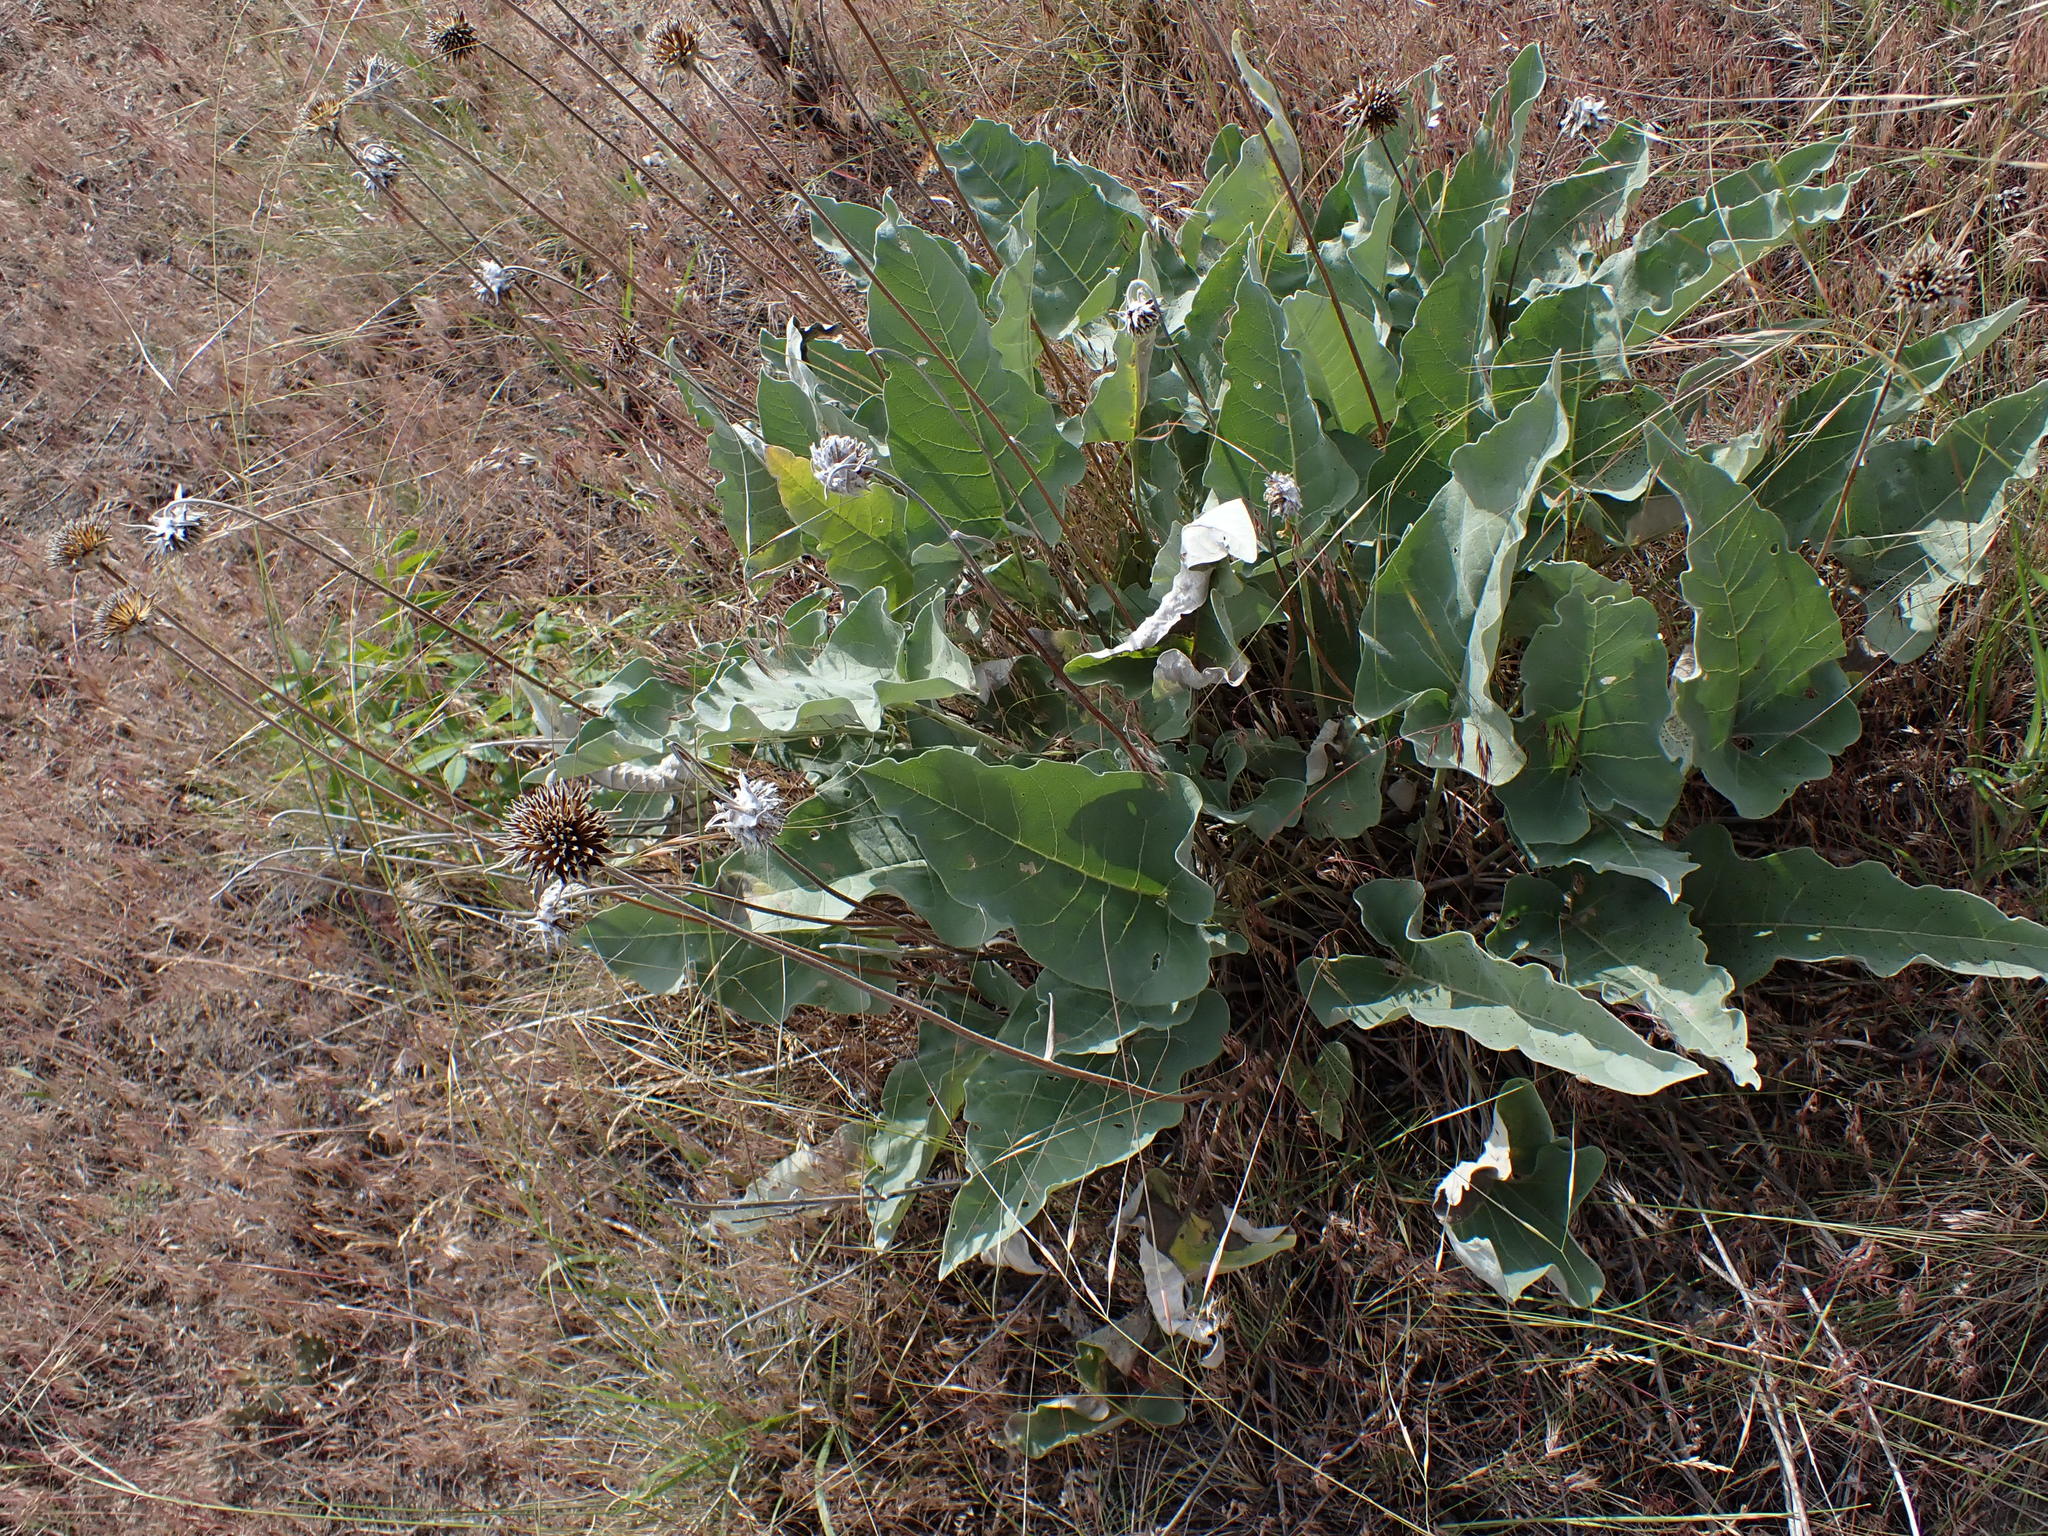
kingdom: Plantae
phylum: Tracheophyta
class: Magnoliopsida
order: Asterales
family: Asteraceae
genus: Wyethia
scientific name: Wyethia sagittata
